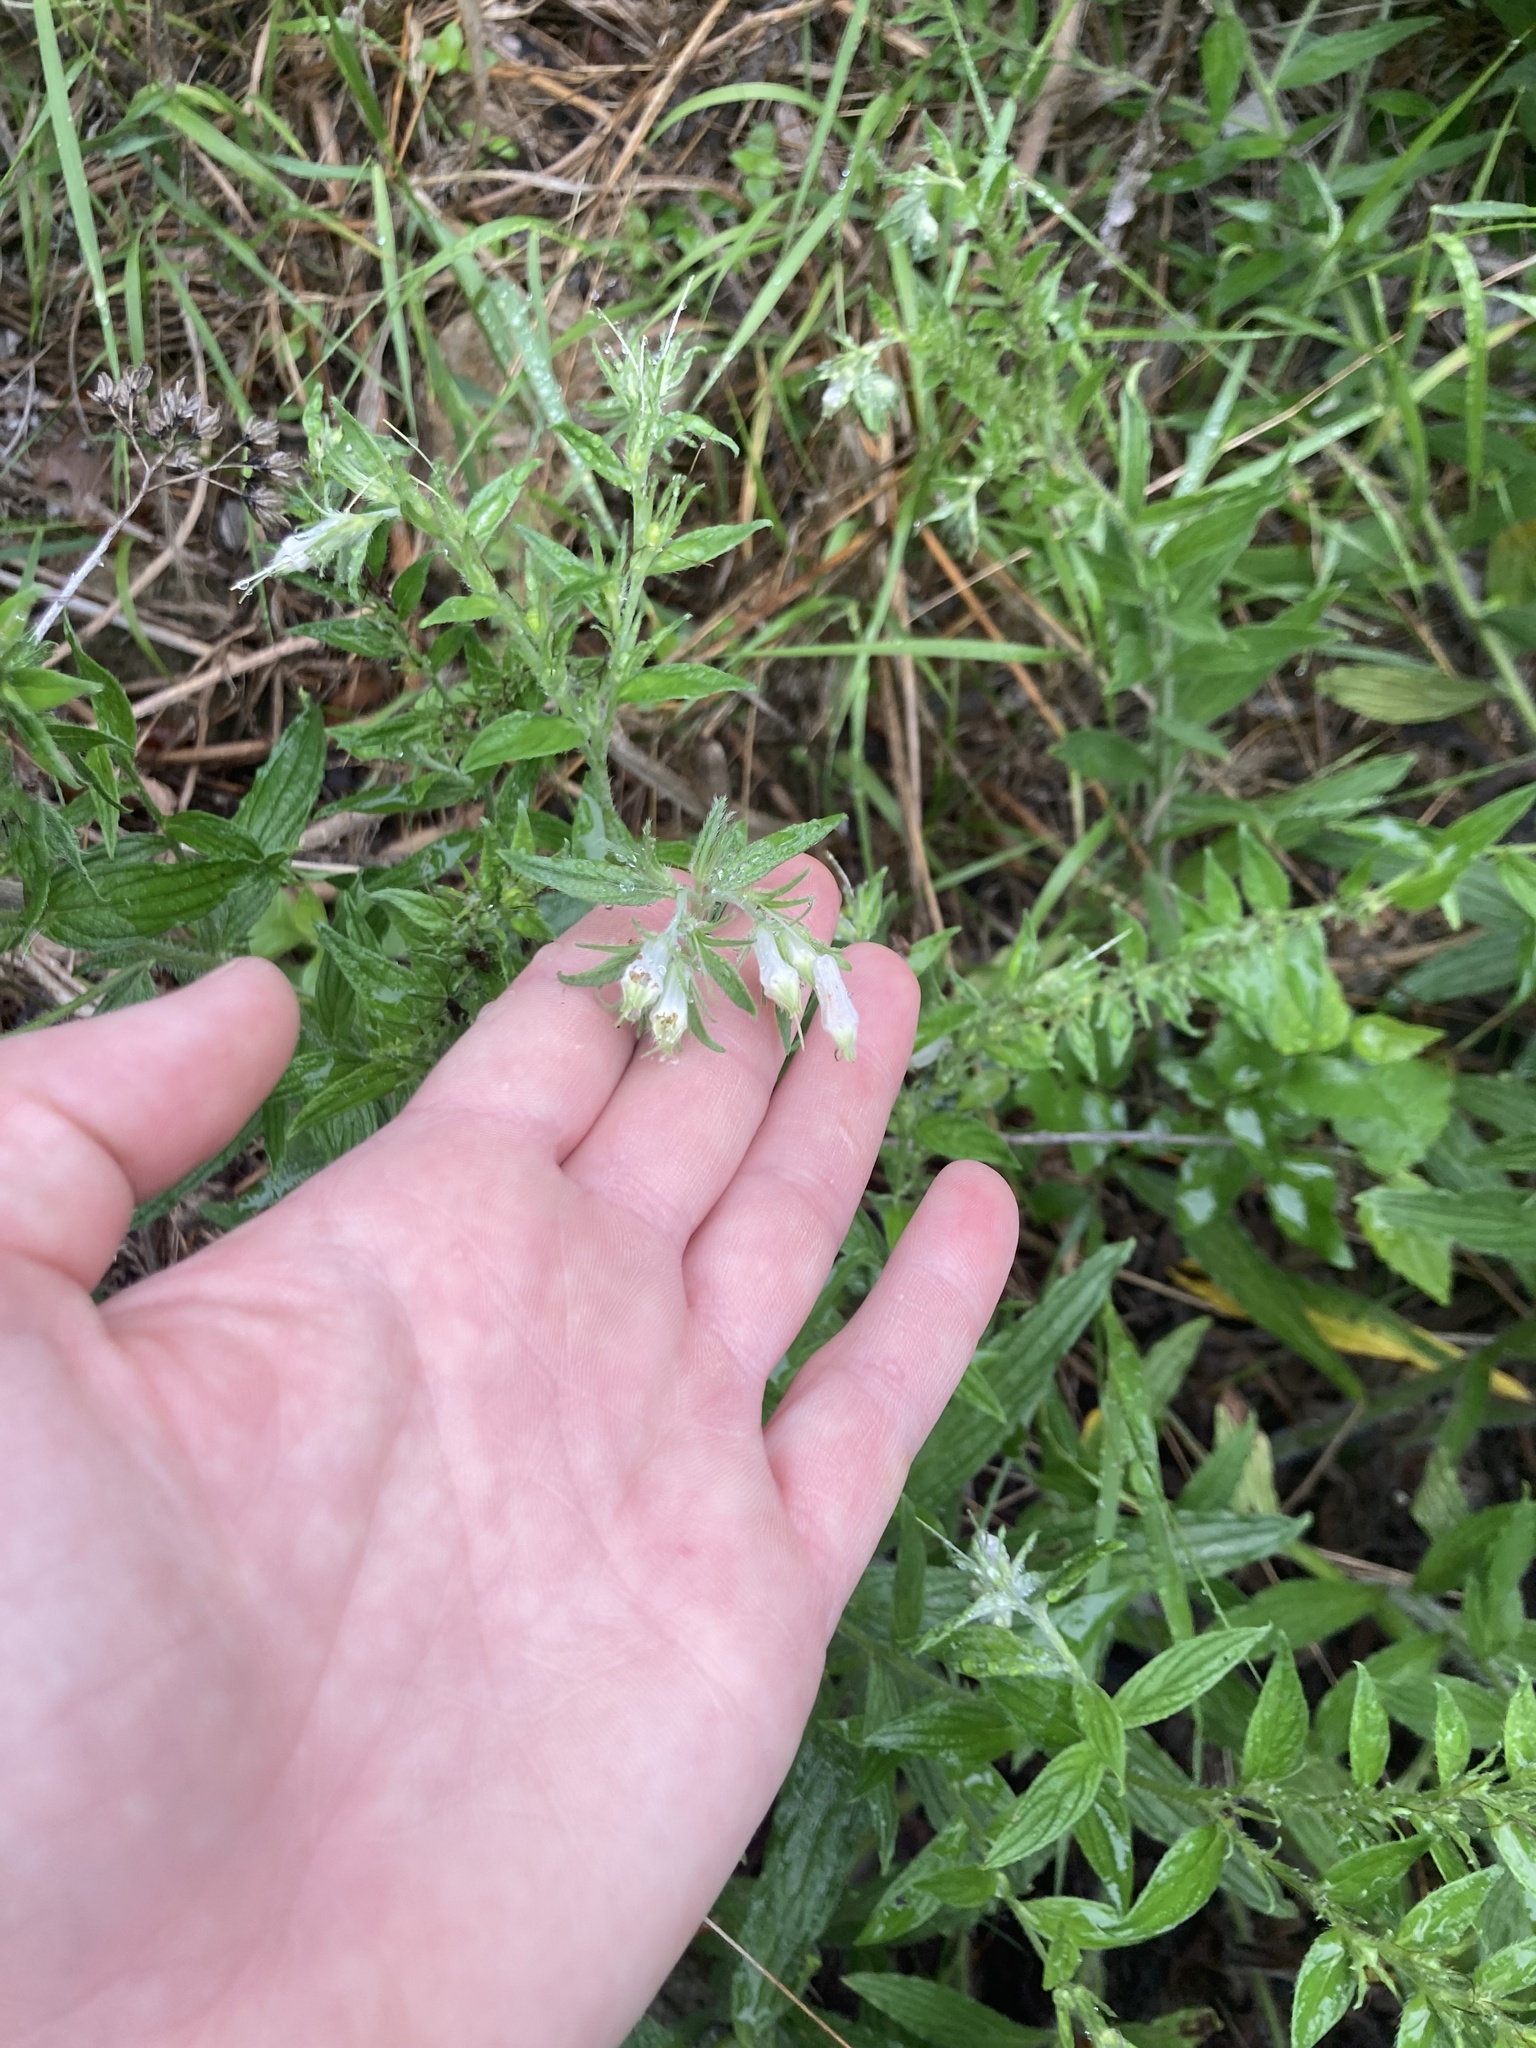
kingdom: Plantae
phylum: Tracheophyta
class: Magnoliopsida
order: Boraginales
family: Boraginaceae
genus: Lithospermum
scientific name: Lithospermum caroliniense
